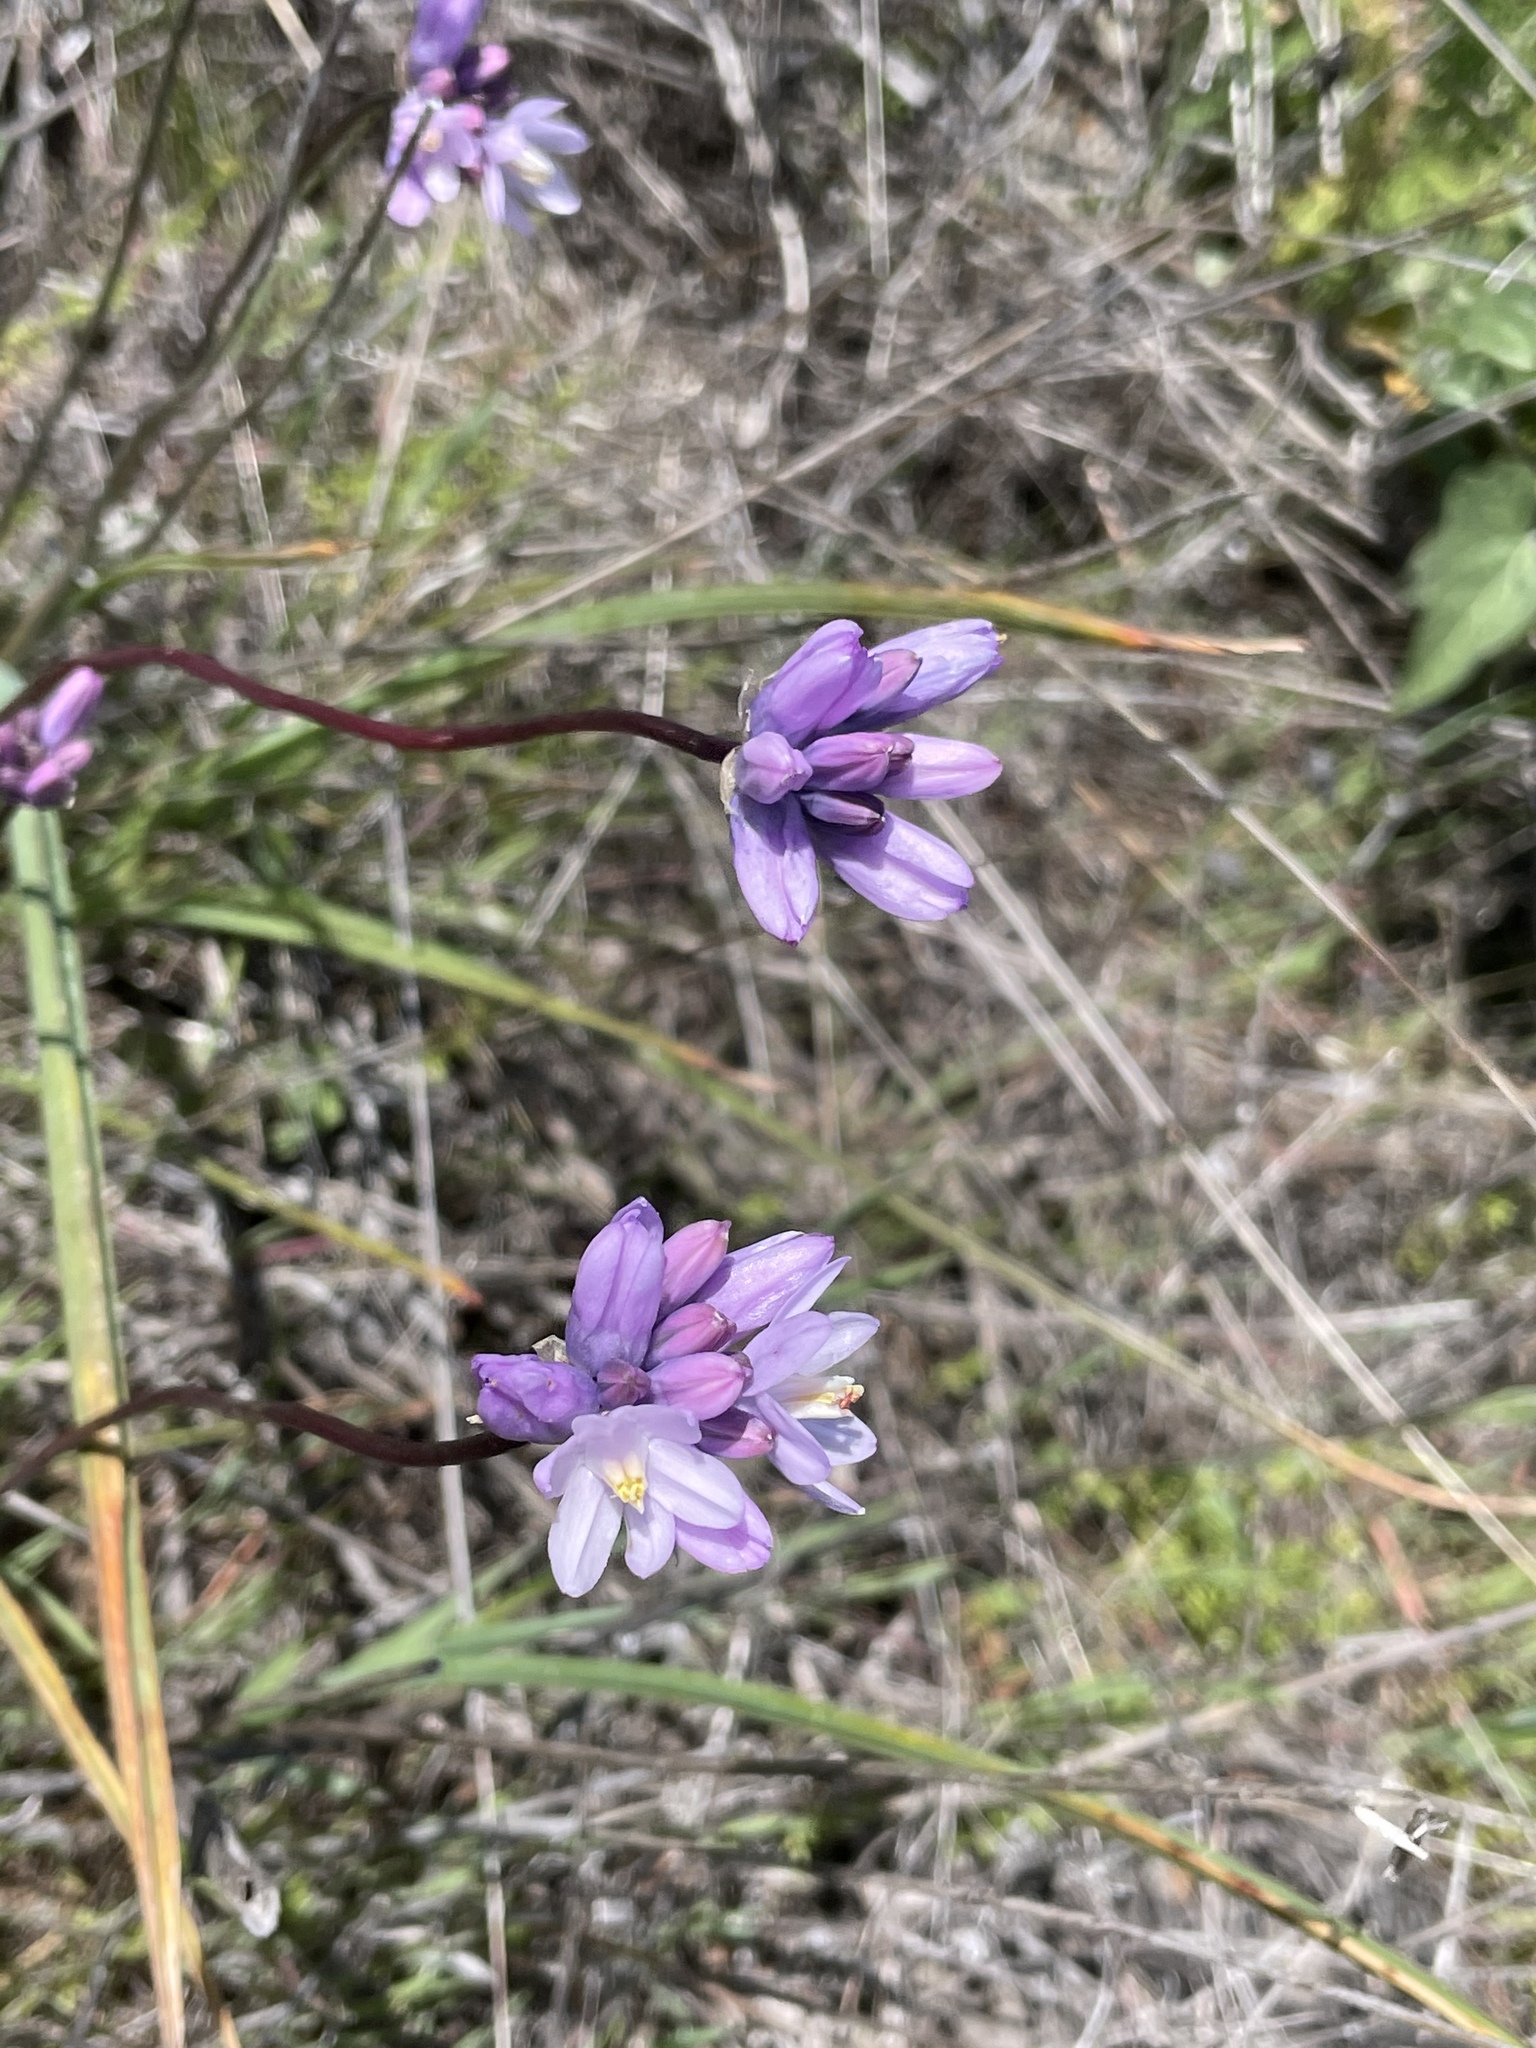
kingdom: Plantae
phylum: Tracheophyta
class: Liliopsida
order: Asparagales
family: Asparagaceae
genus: Dipterostemon
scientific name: Dipterostemon capitatus
